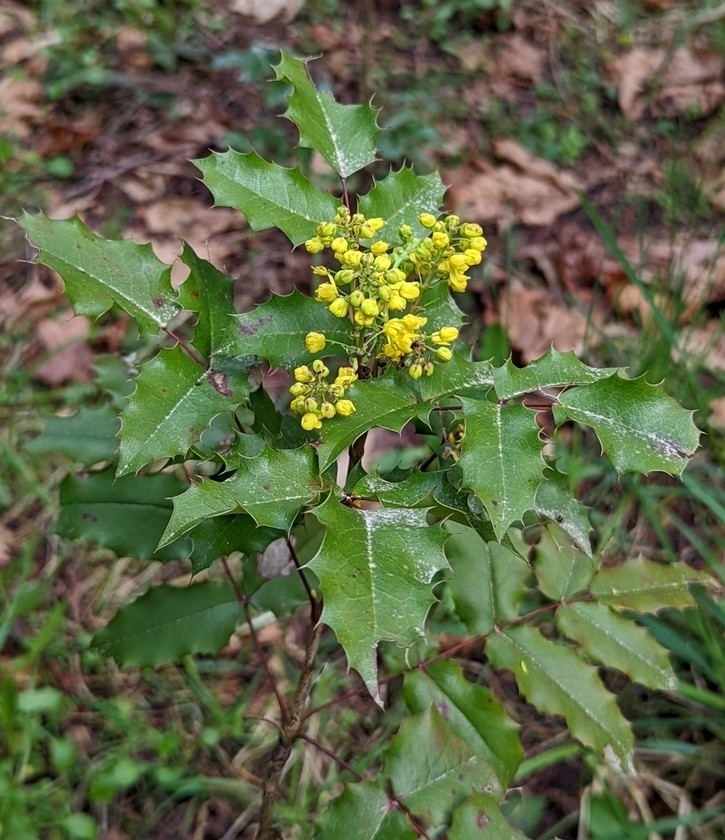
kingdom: Plantae
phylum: Tracheophyta
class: Magnoliopsida
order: Ranunculales
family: Berberidaceae
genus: Mahonia
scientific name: Mahonia aquifolium
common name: Oregon-grape
